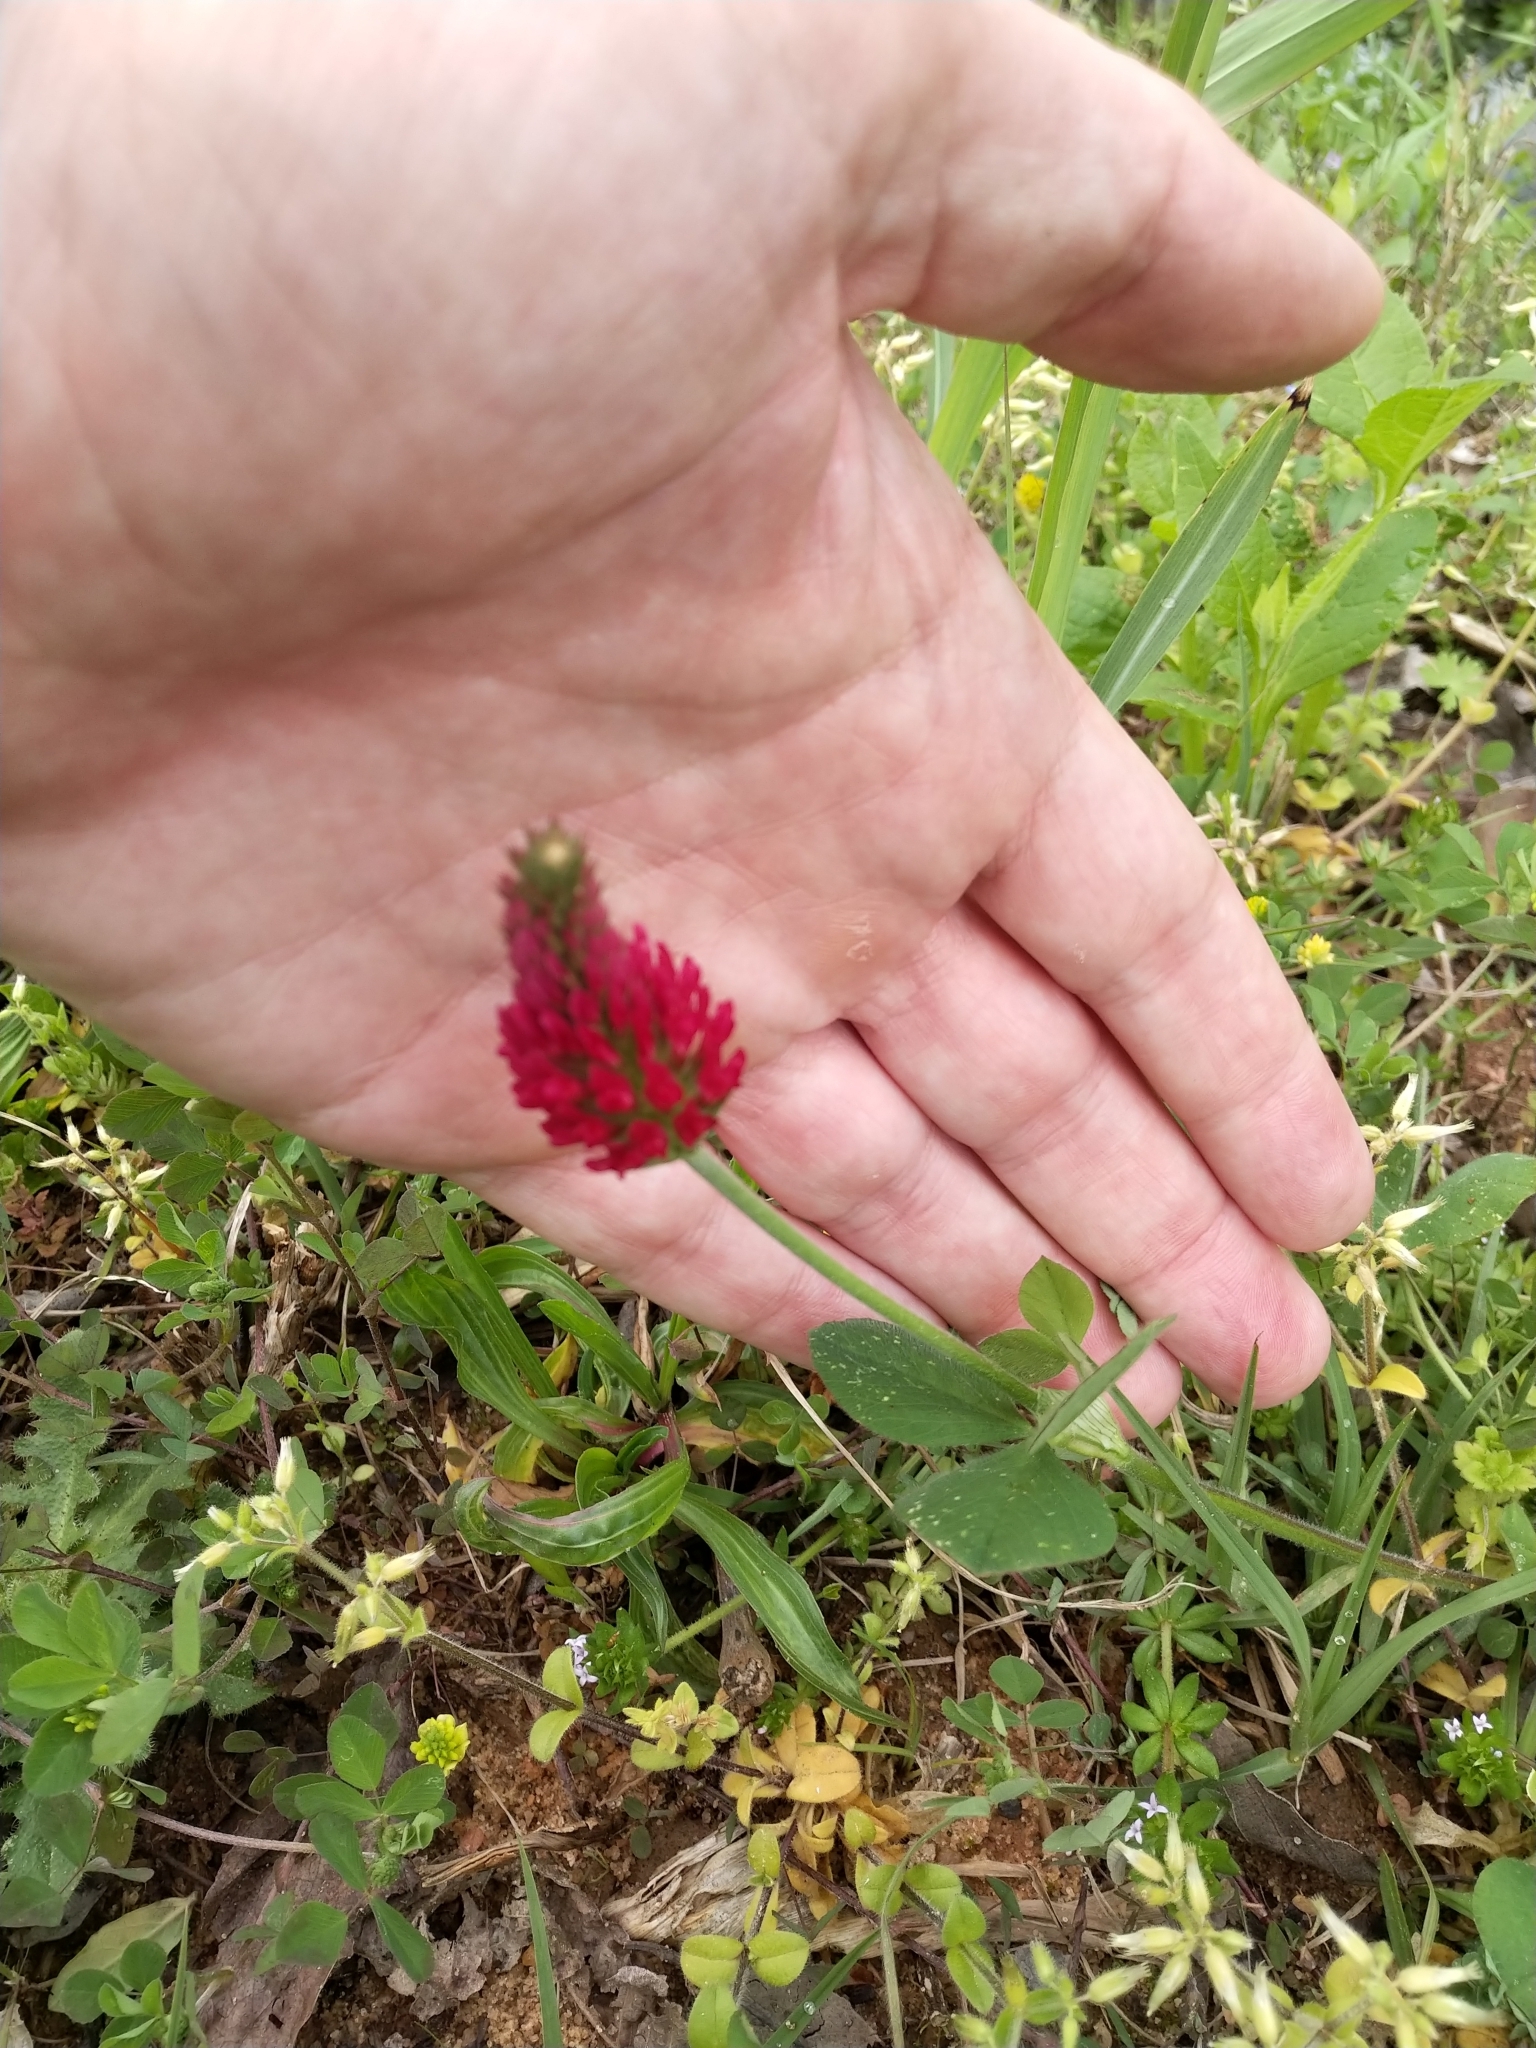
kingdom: Plantae
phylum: Tracheophyta
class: Magnoliopsida
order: Fabales
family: Fabaceae
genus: Trifolium
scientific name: Trifolium incarnatum
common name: Crimson clover
